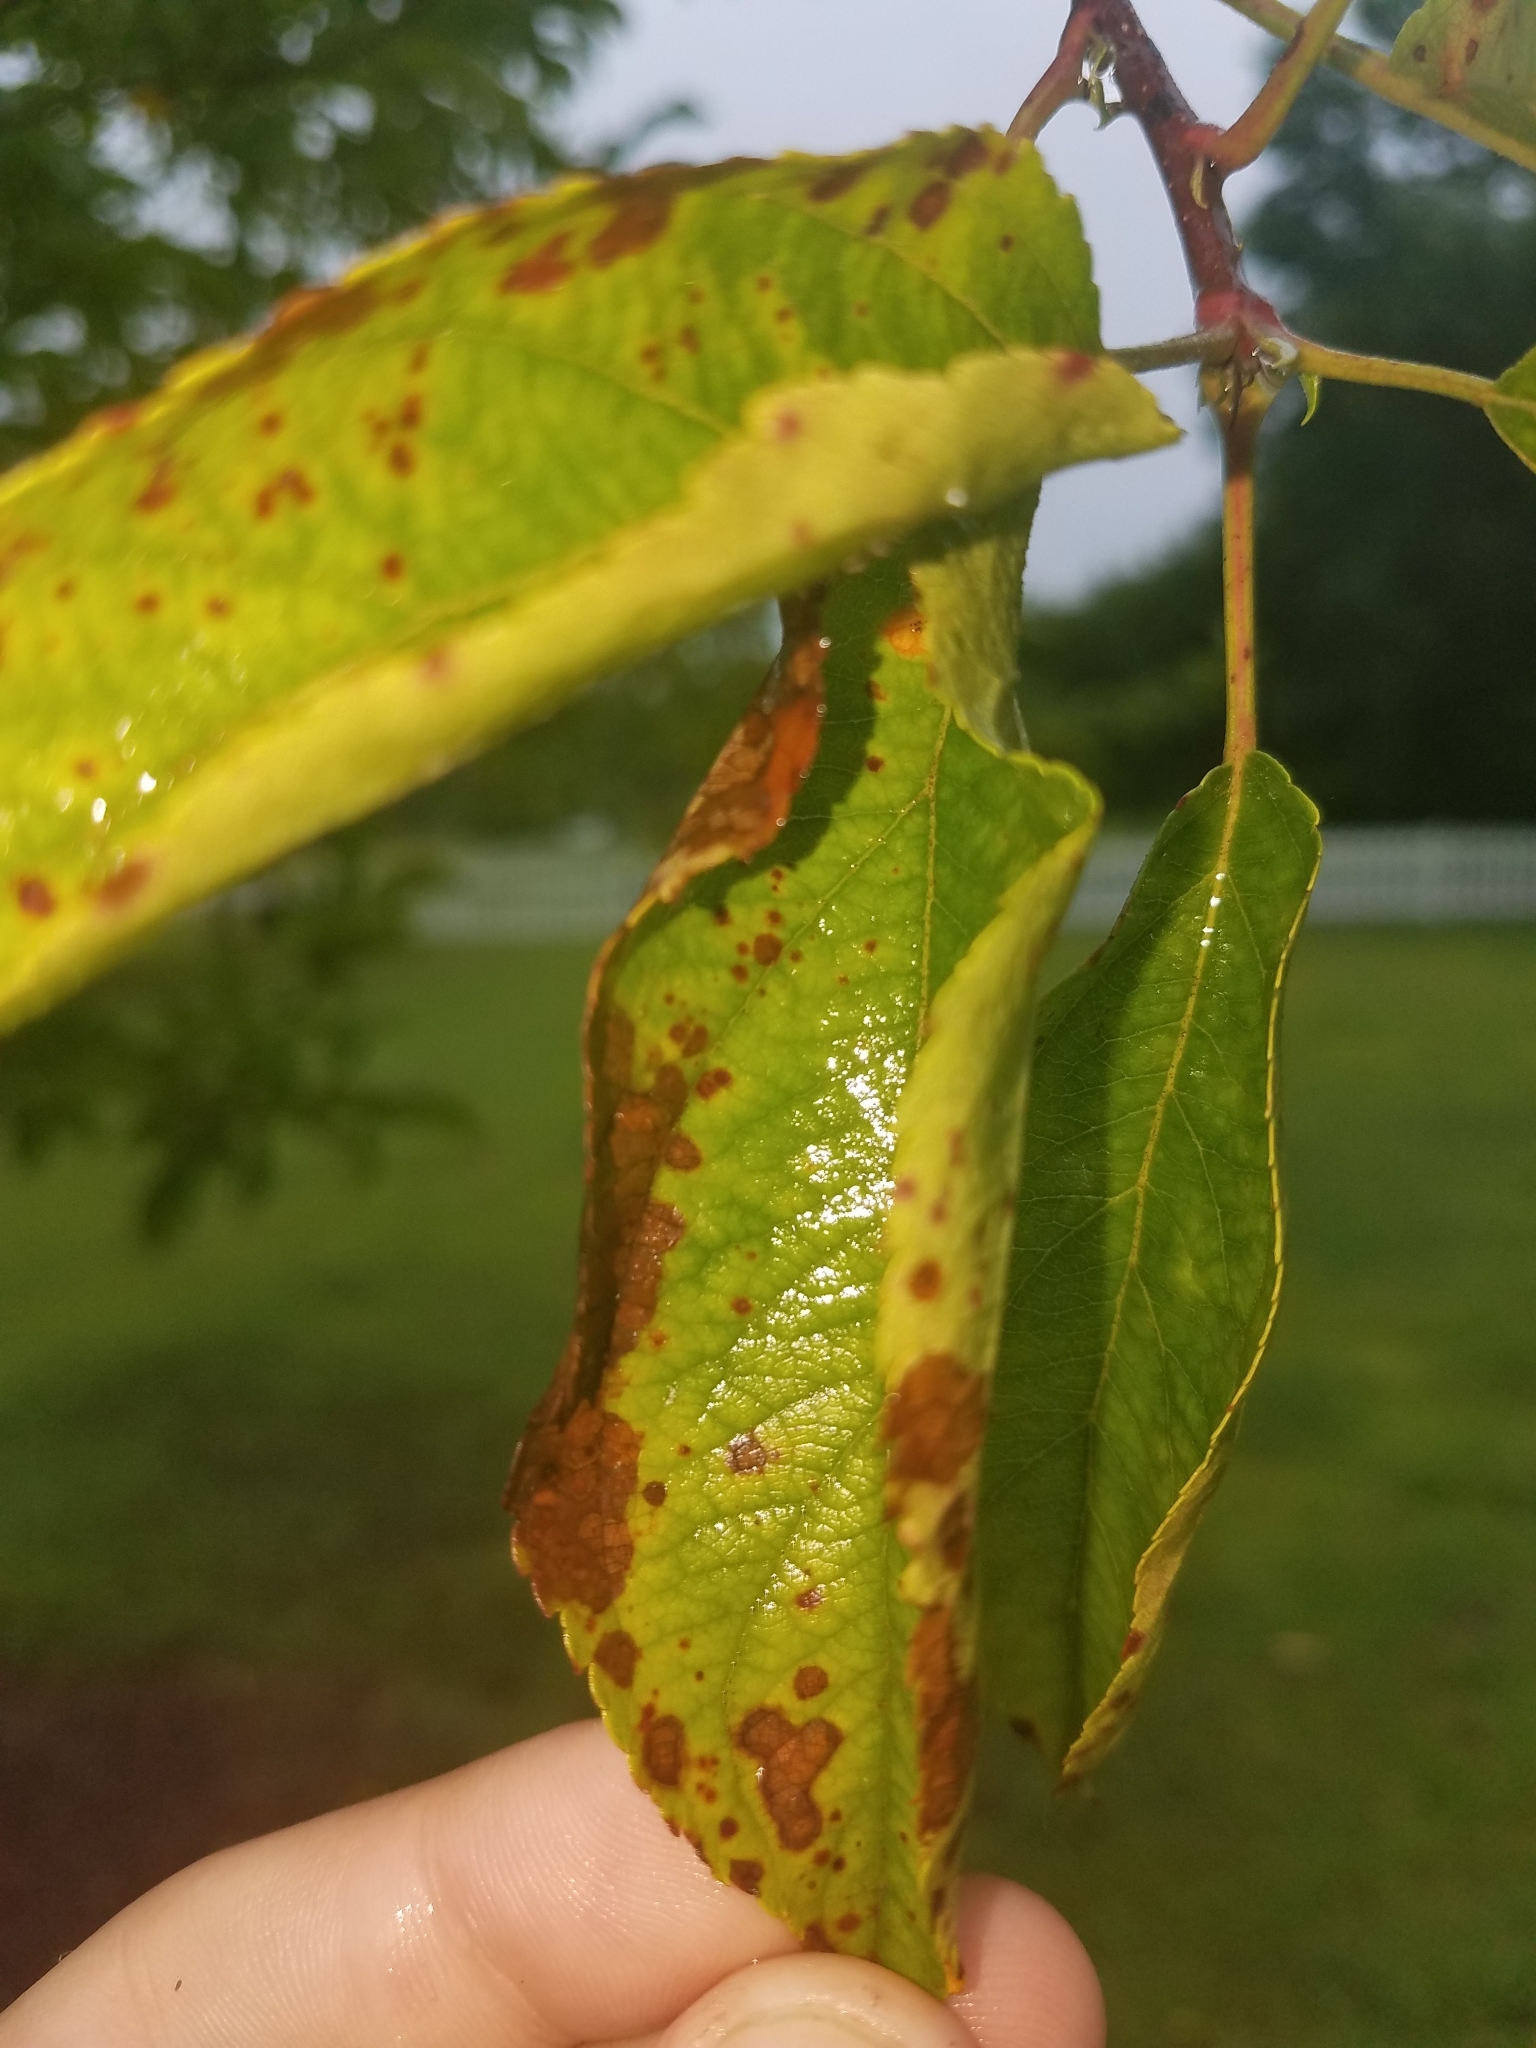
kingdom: Fungi
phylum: Basidiomycota
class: Pucciniomycetes
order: Pucciniales
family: Pucciniaceae
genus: Puccinia
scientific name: Puccinia podophylli
